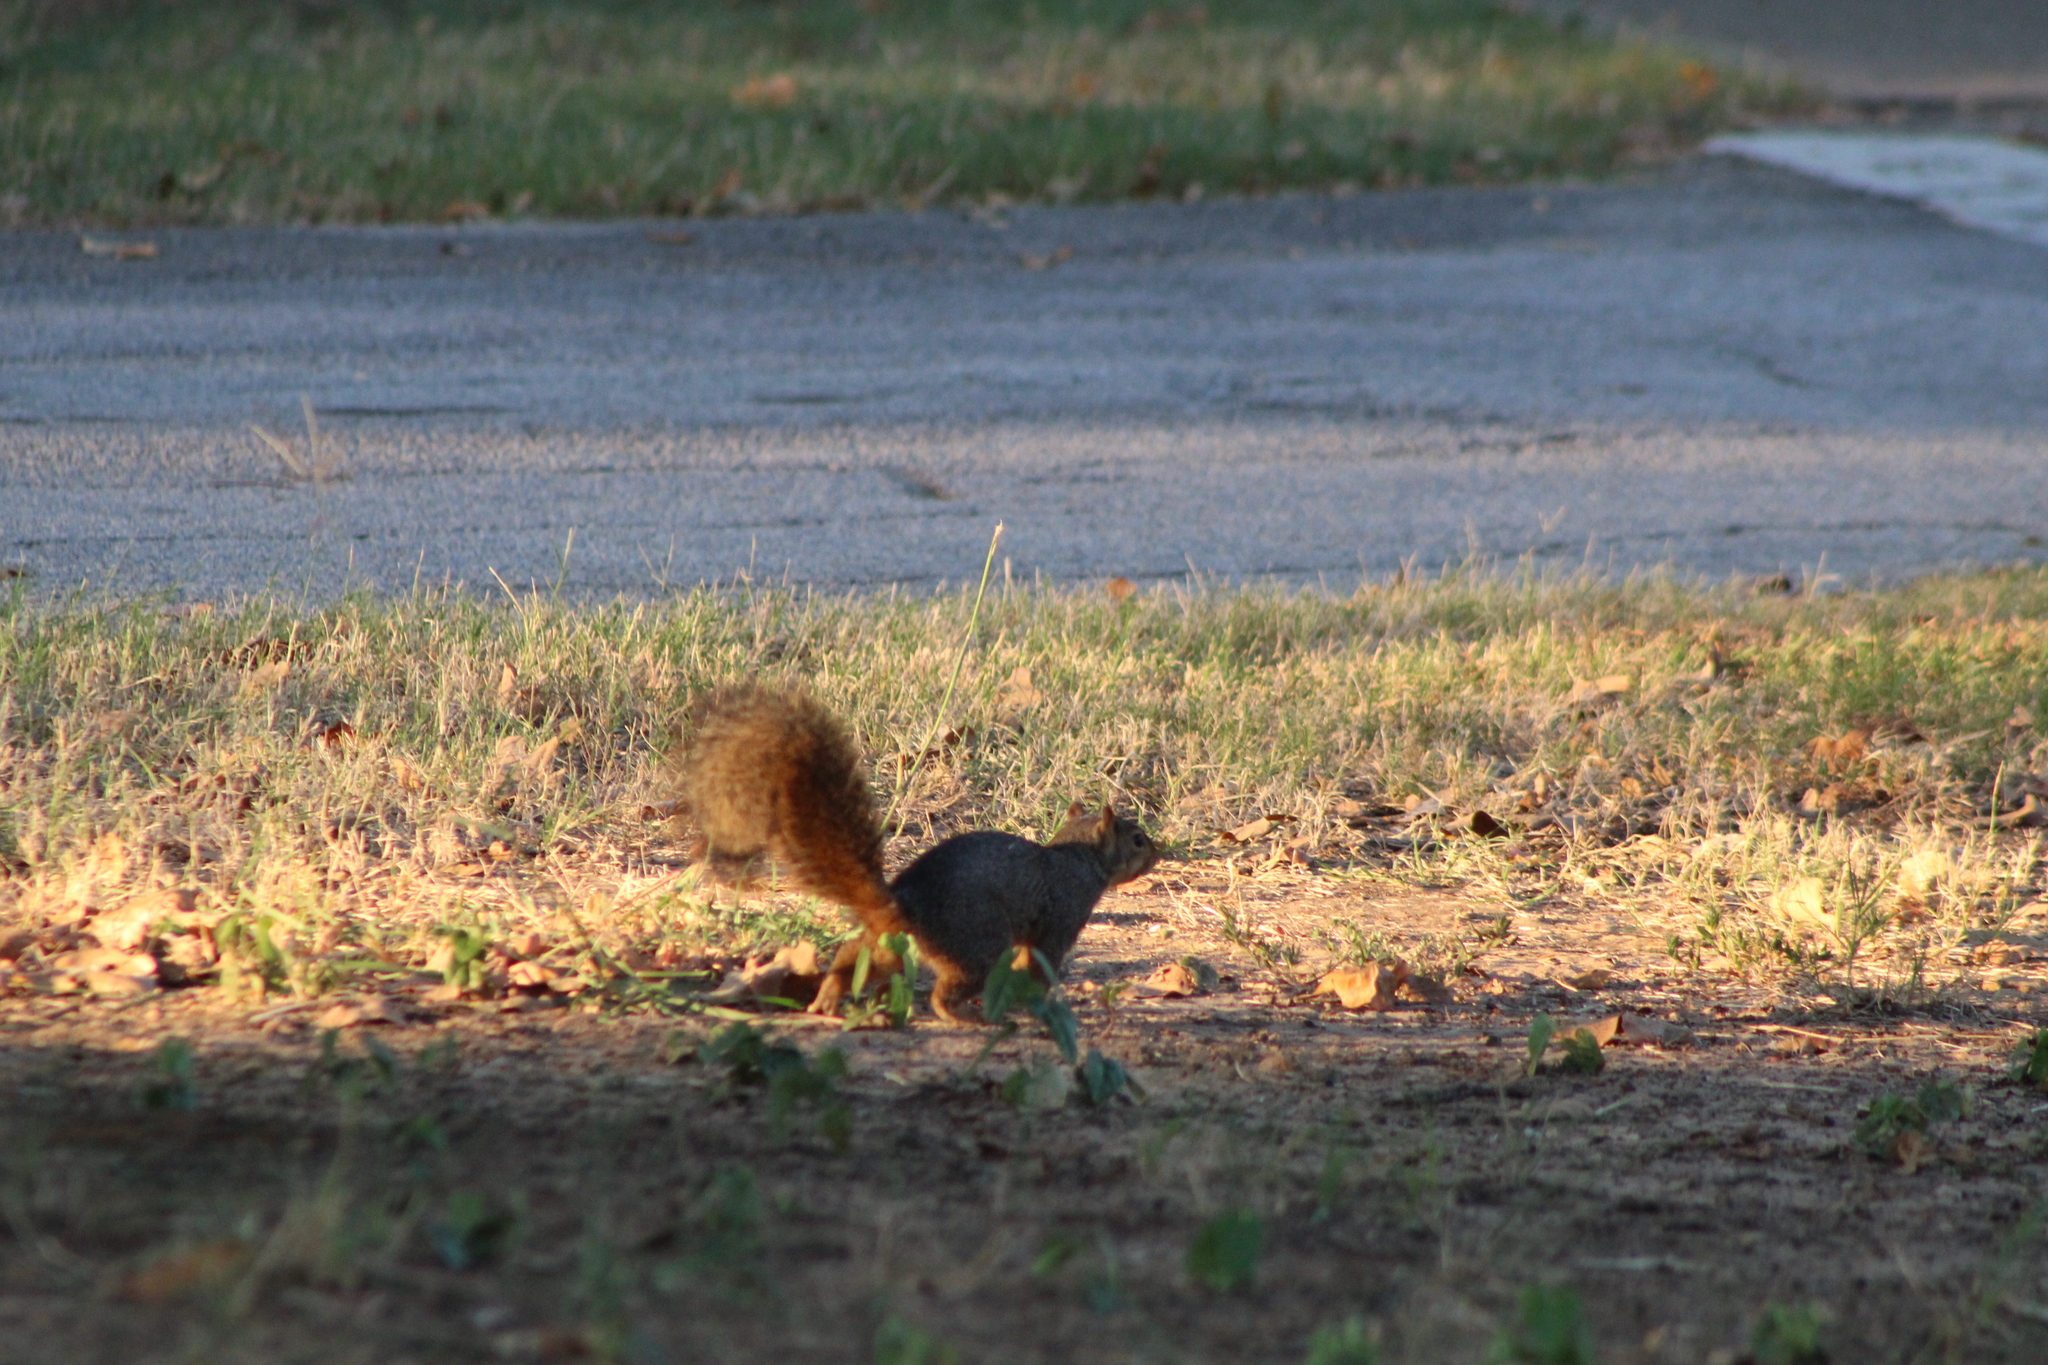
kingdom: Animalia
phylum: Chordata
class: Mammalia
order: Rodentia
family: Sciuridae
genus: Sciurus
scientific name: Sciurus niger
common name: Fox squirrel
